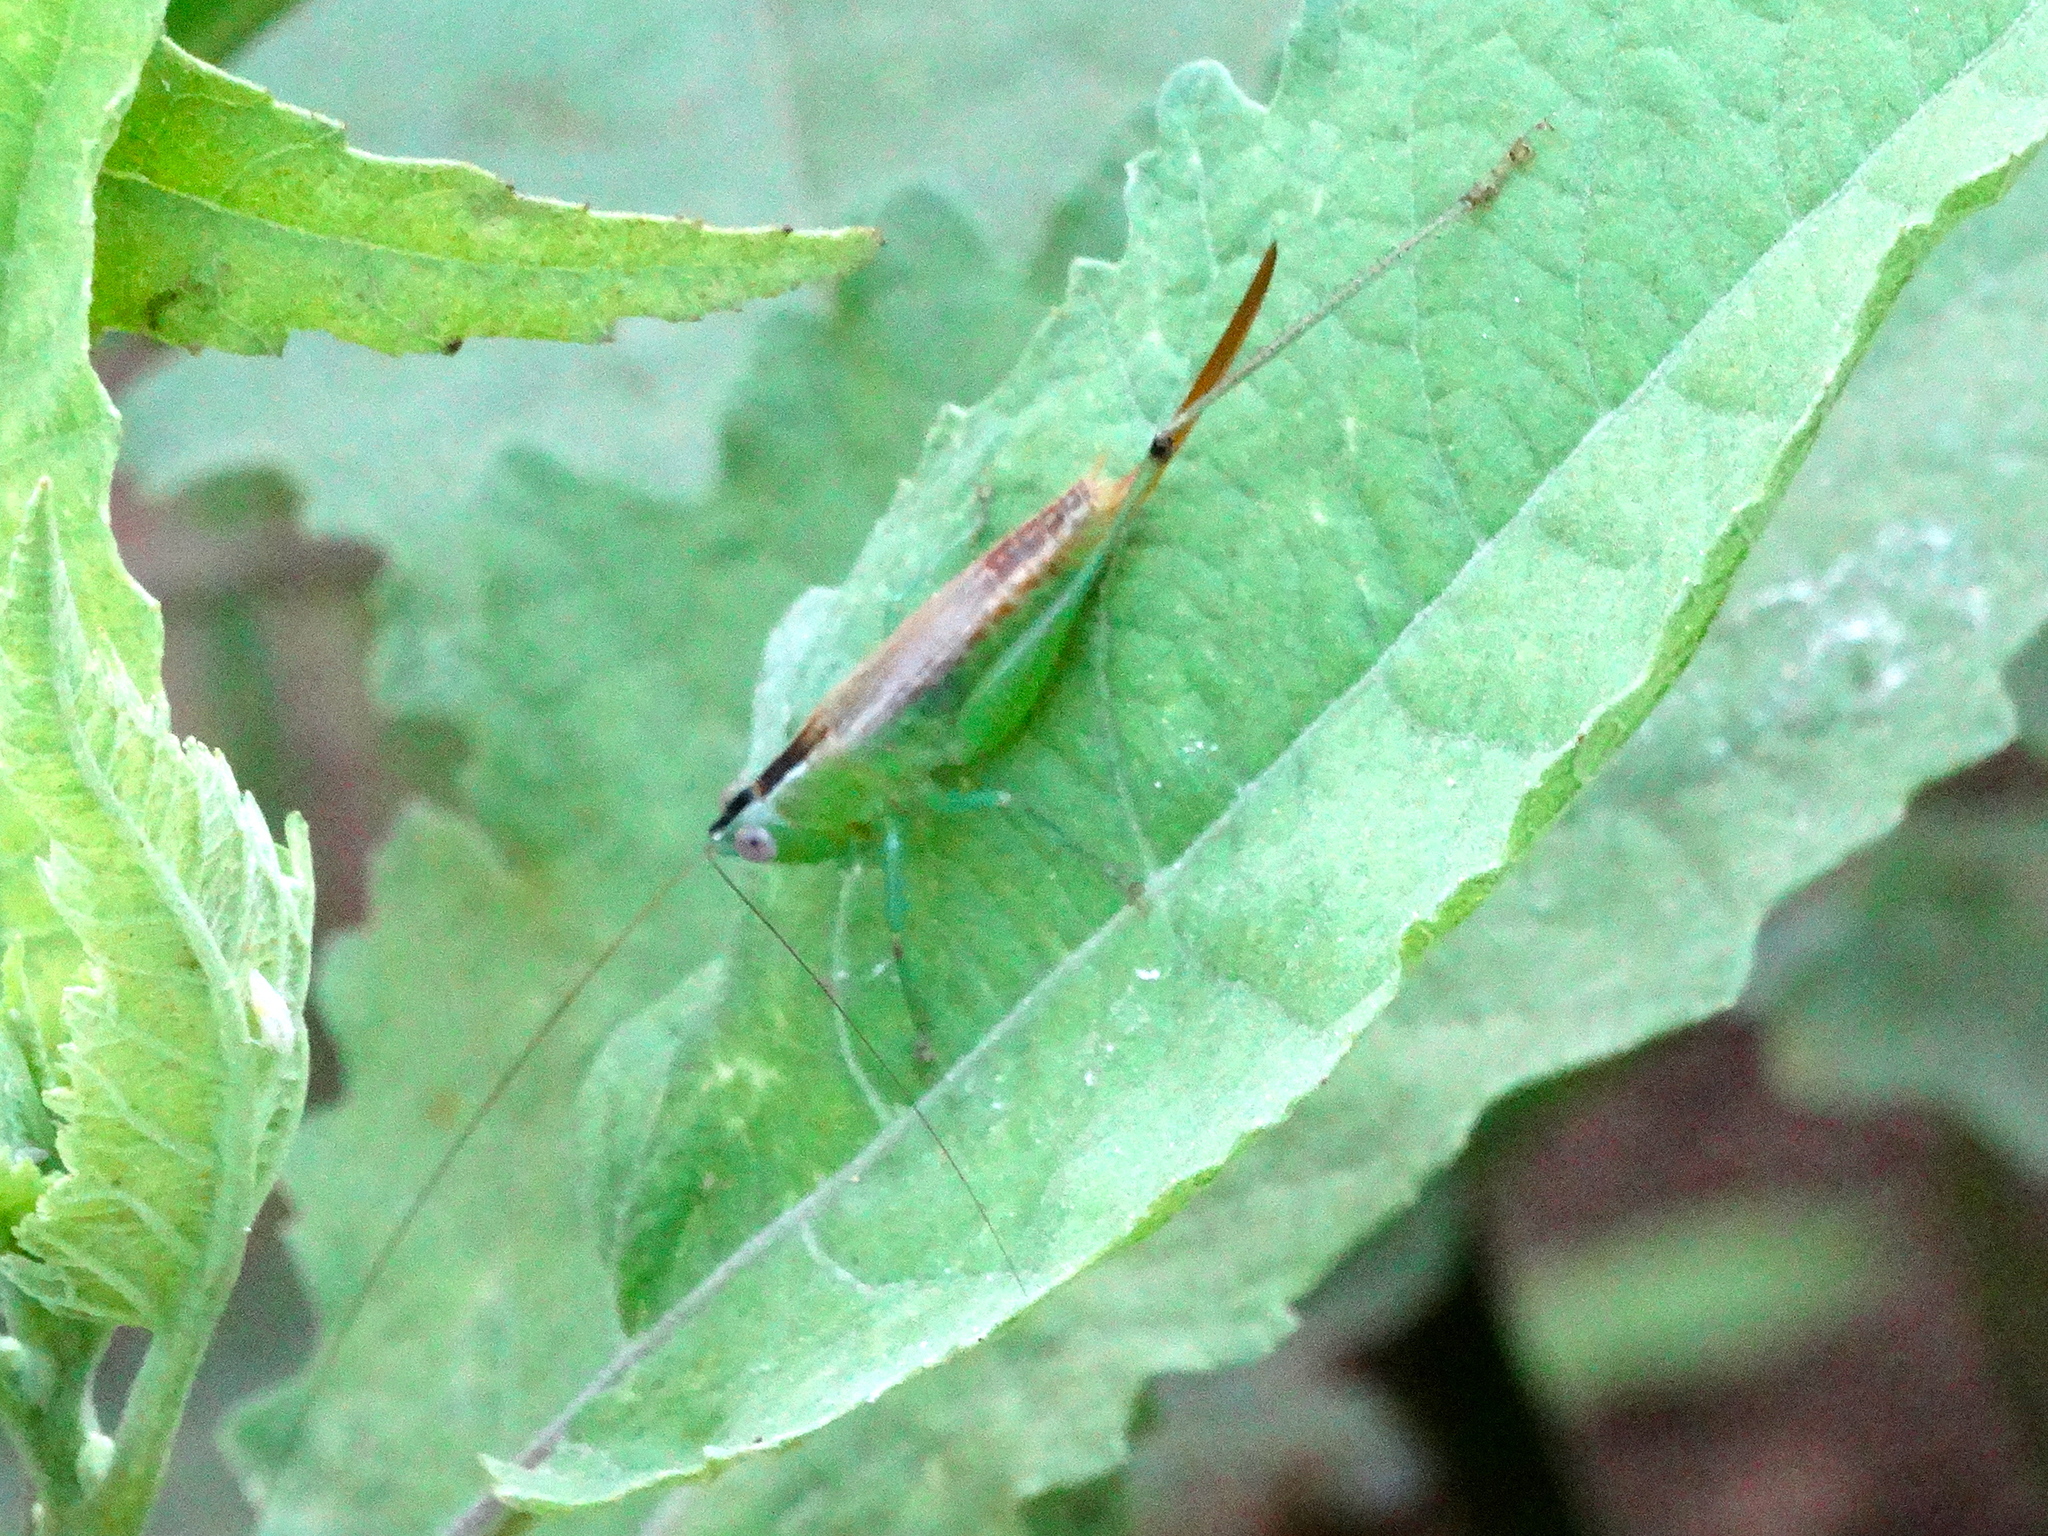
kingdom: Animalia
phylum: Arthropoda
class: Insecta
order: Orthoptera
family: Tettigoniidae
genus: Conocephalus
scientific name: Conocephalus
